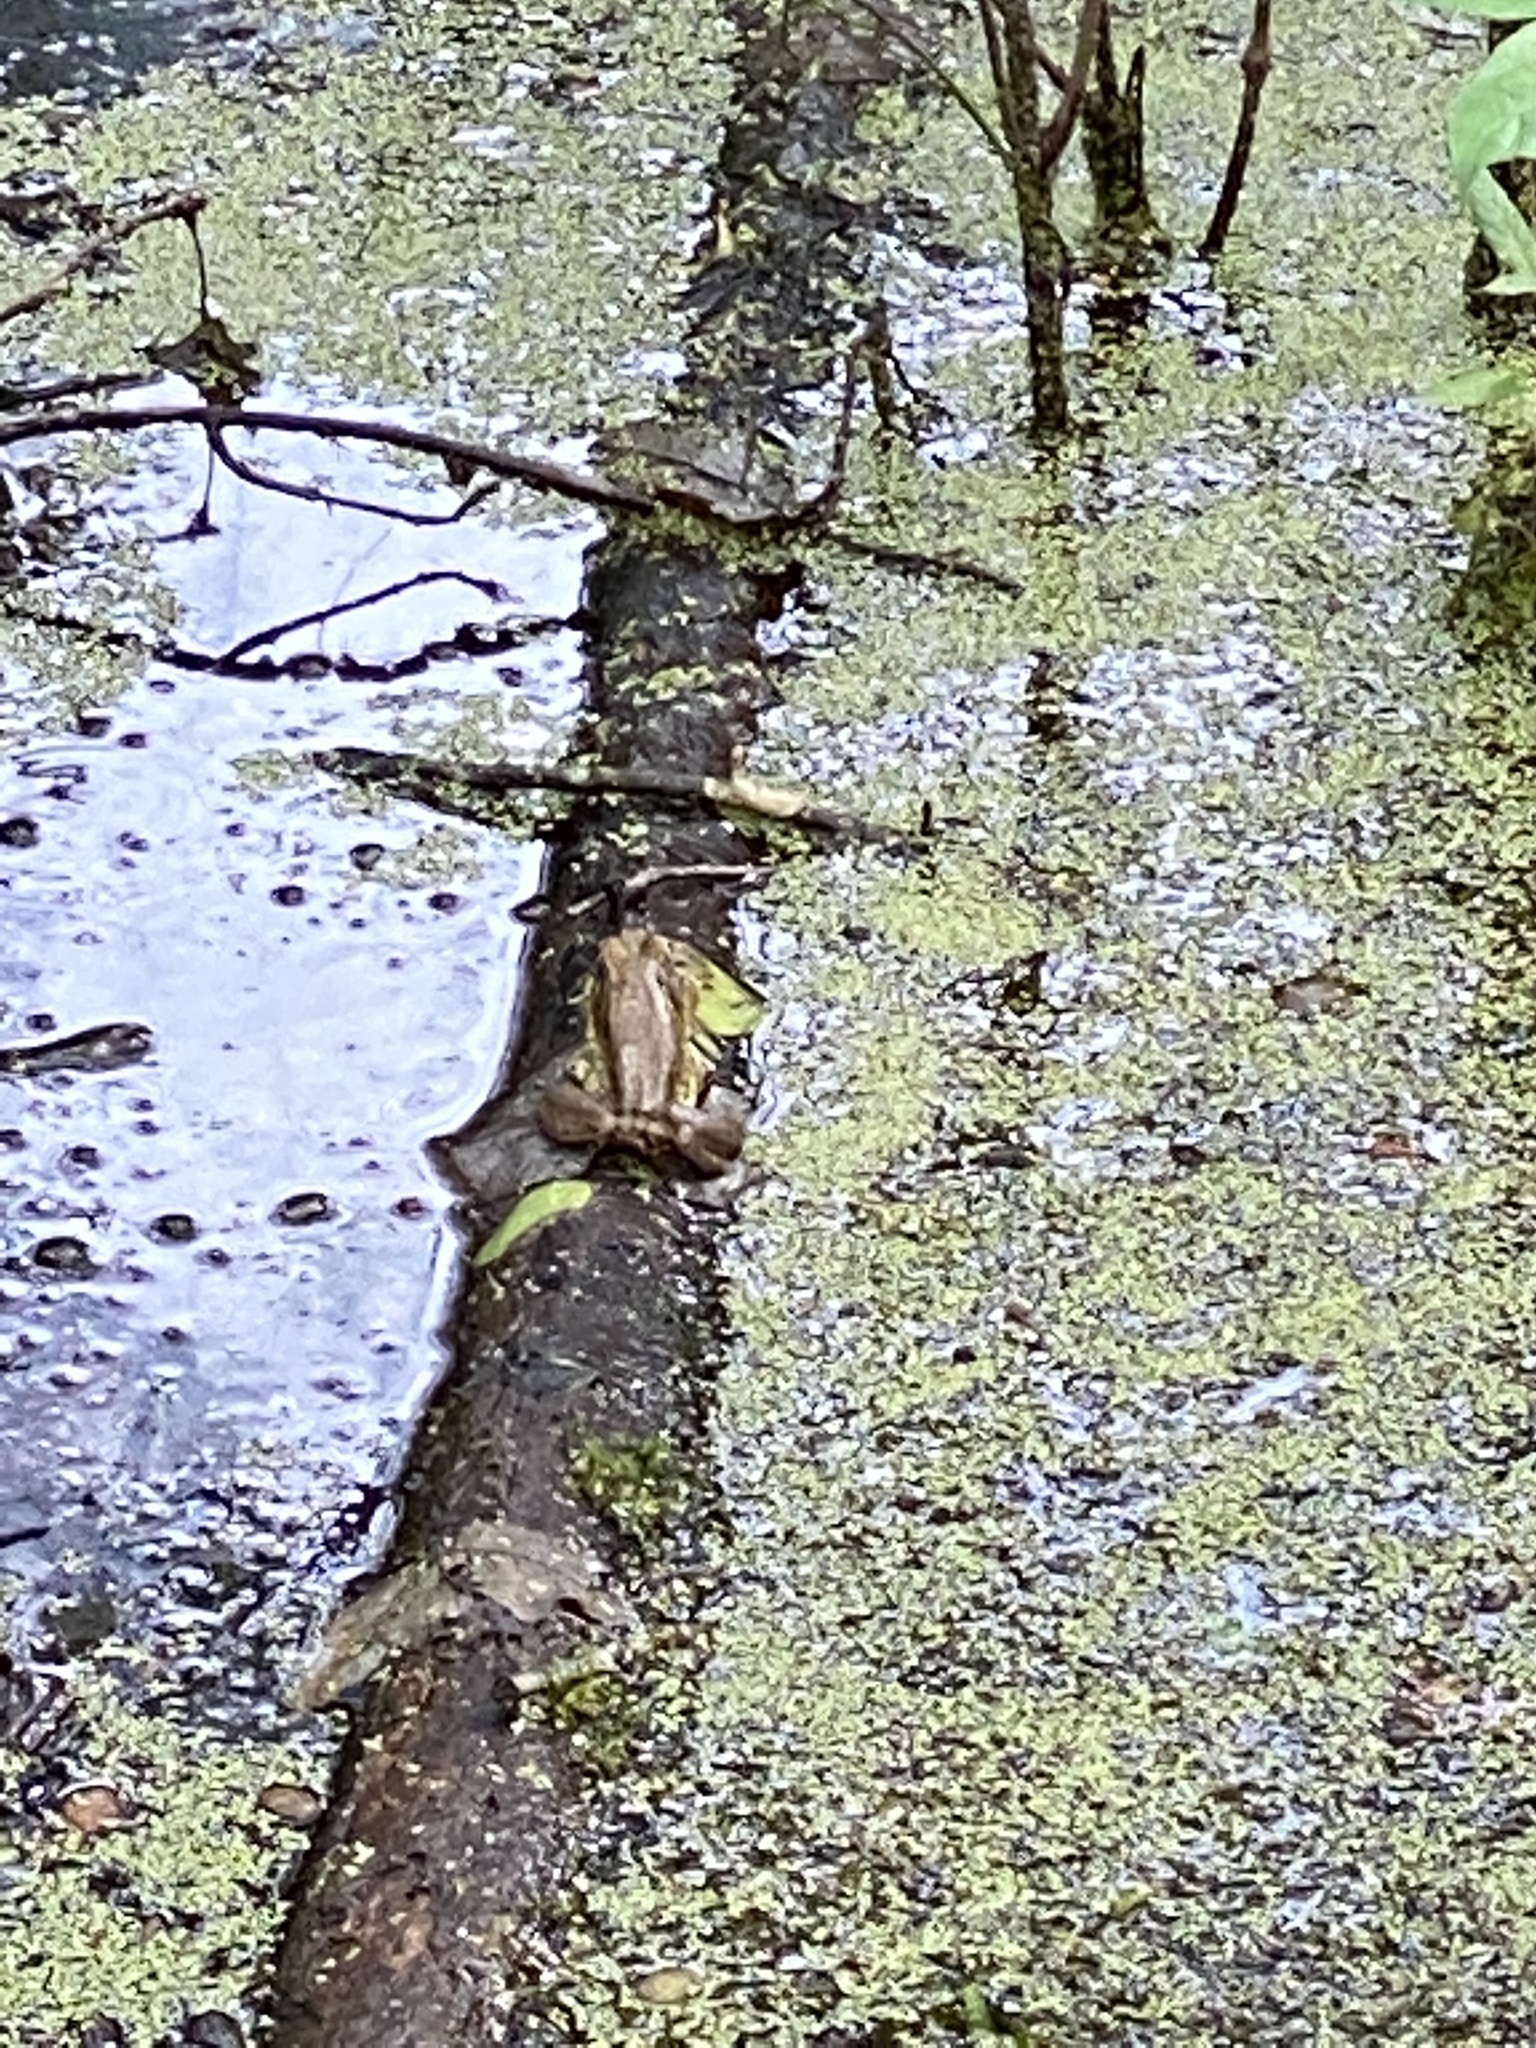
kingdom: Animalia
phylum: Chordata
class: Amphibia
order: Anura
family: Ranidae
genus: Lithobates
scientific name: Lithobates catesbeianus
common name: American bullfrog
